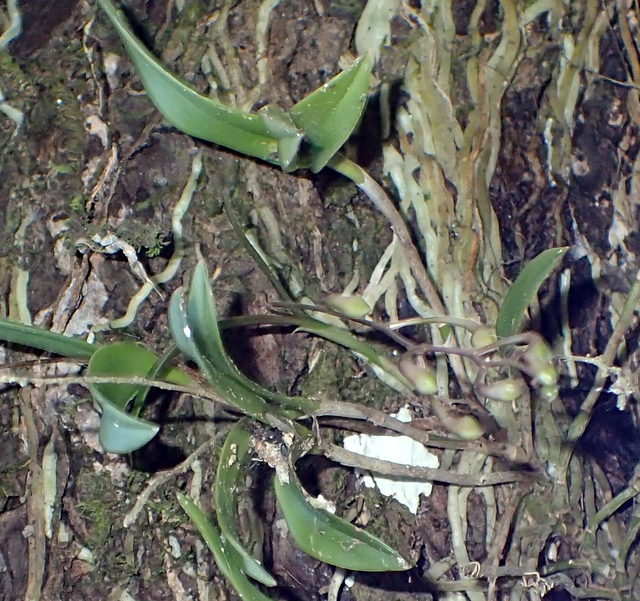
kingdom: Plantae
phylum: Tracheophyta
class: Liliopsida
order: Asparagales
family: Orchidaceae
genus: Epidendrum
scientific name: Epidendrum conopseum
